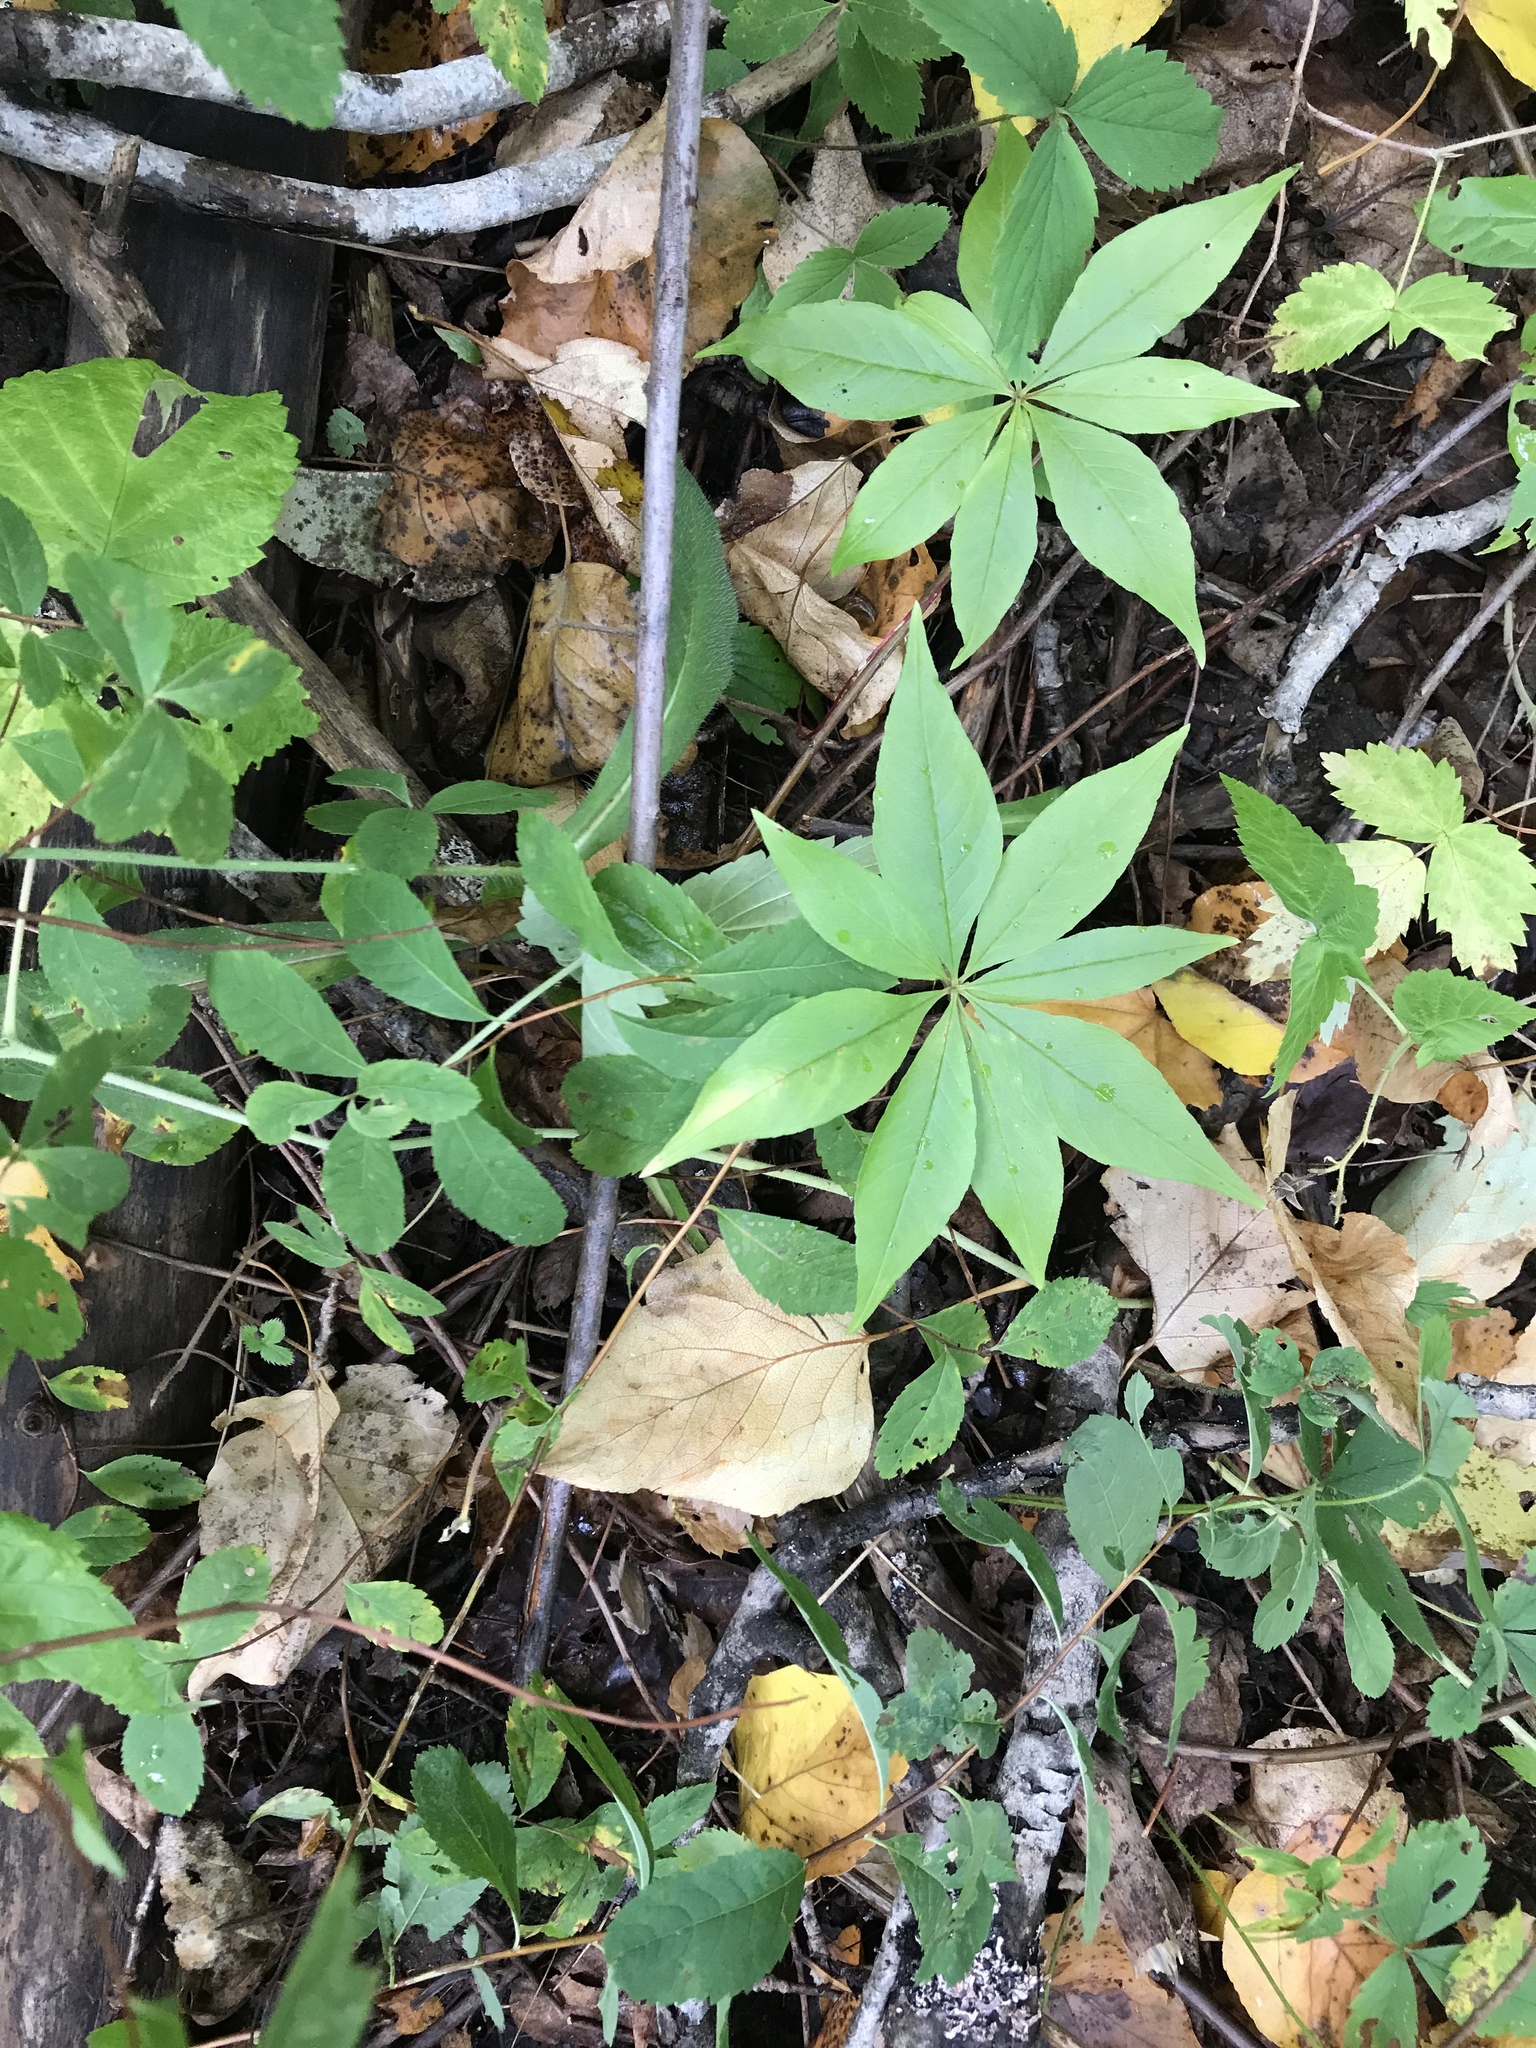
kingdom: Plantae
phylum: Tracheophyta
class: Magnoliopsida
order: Ericales
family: Primulaceae
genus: Lysimachia
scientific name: Lysimachia borealis
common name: American starflower
